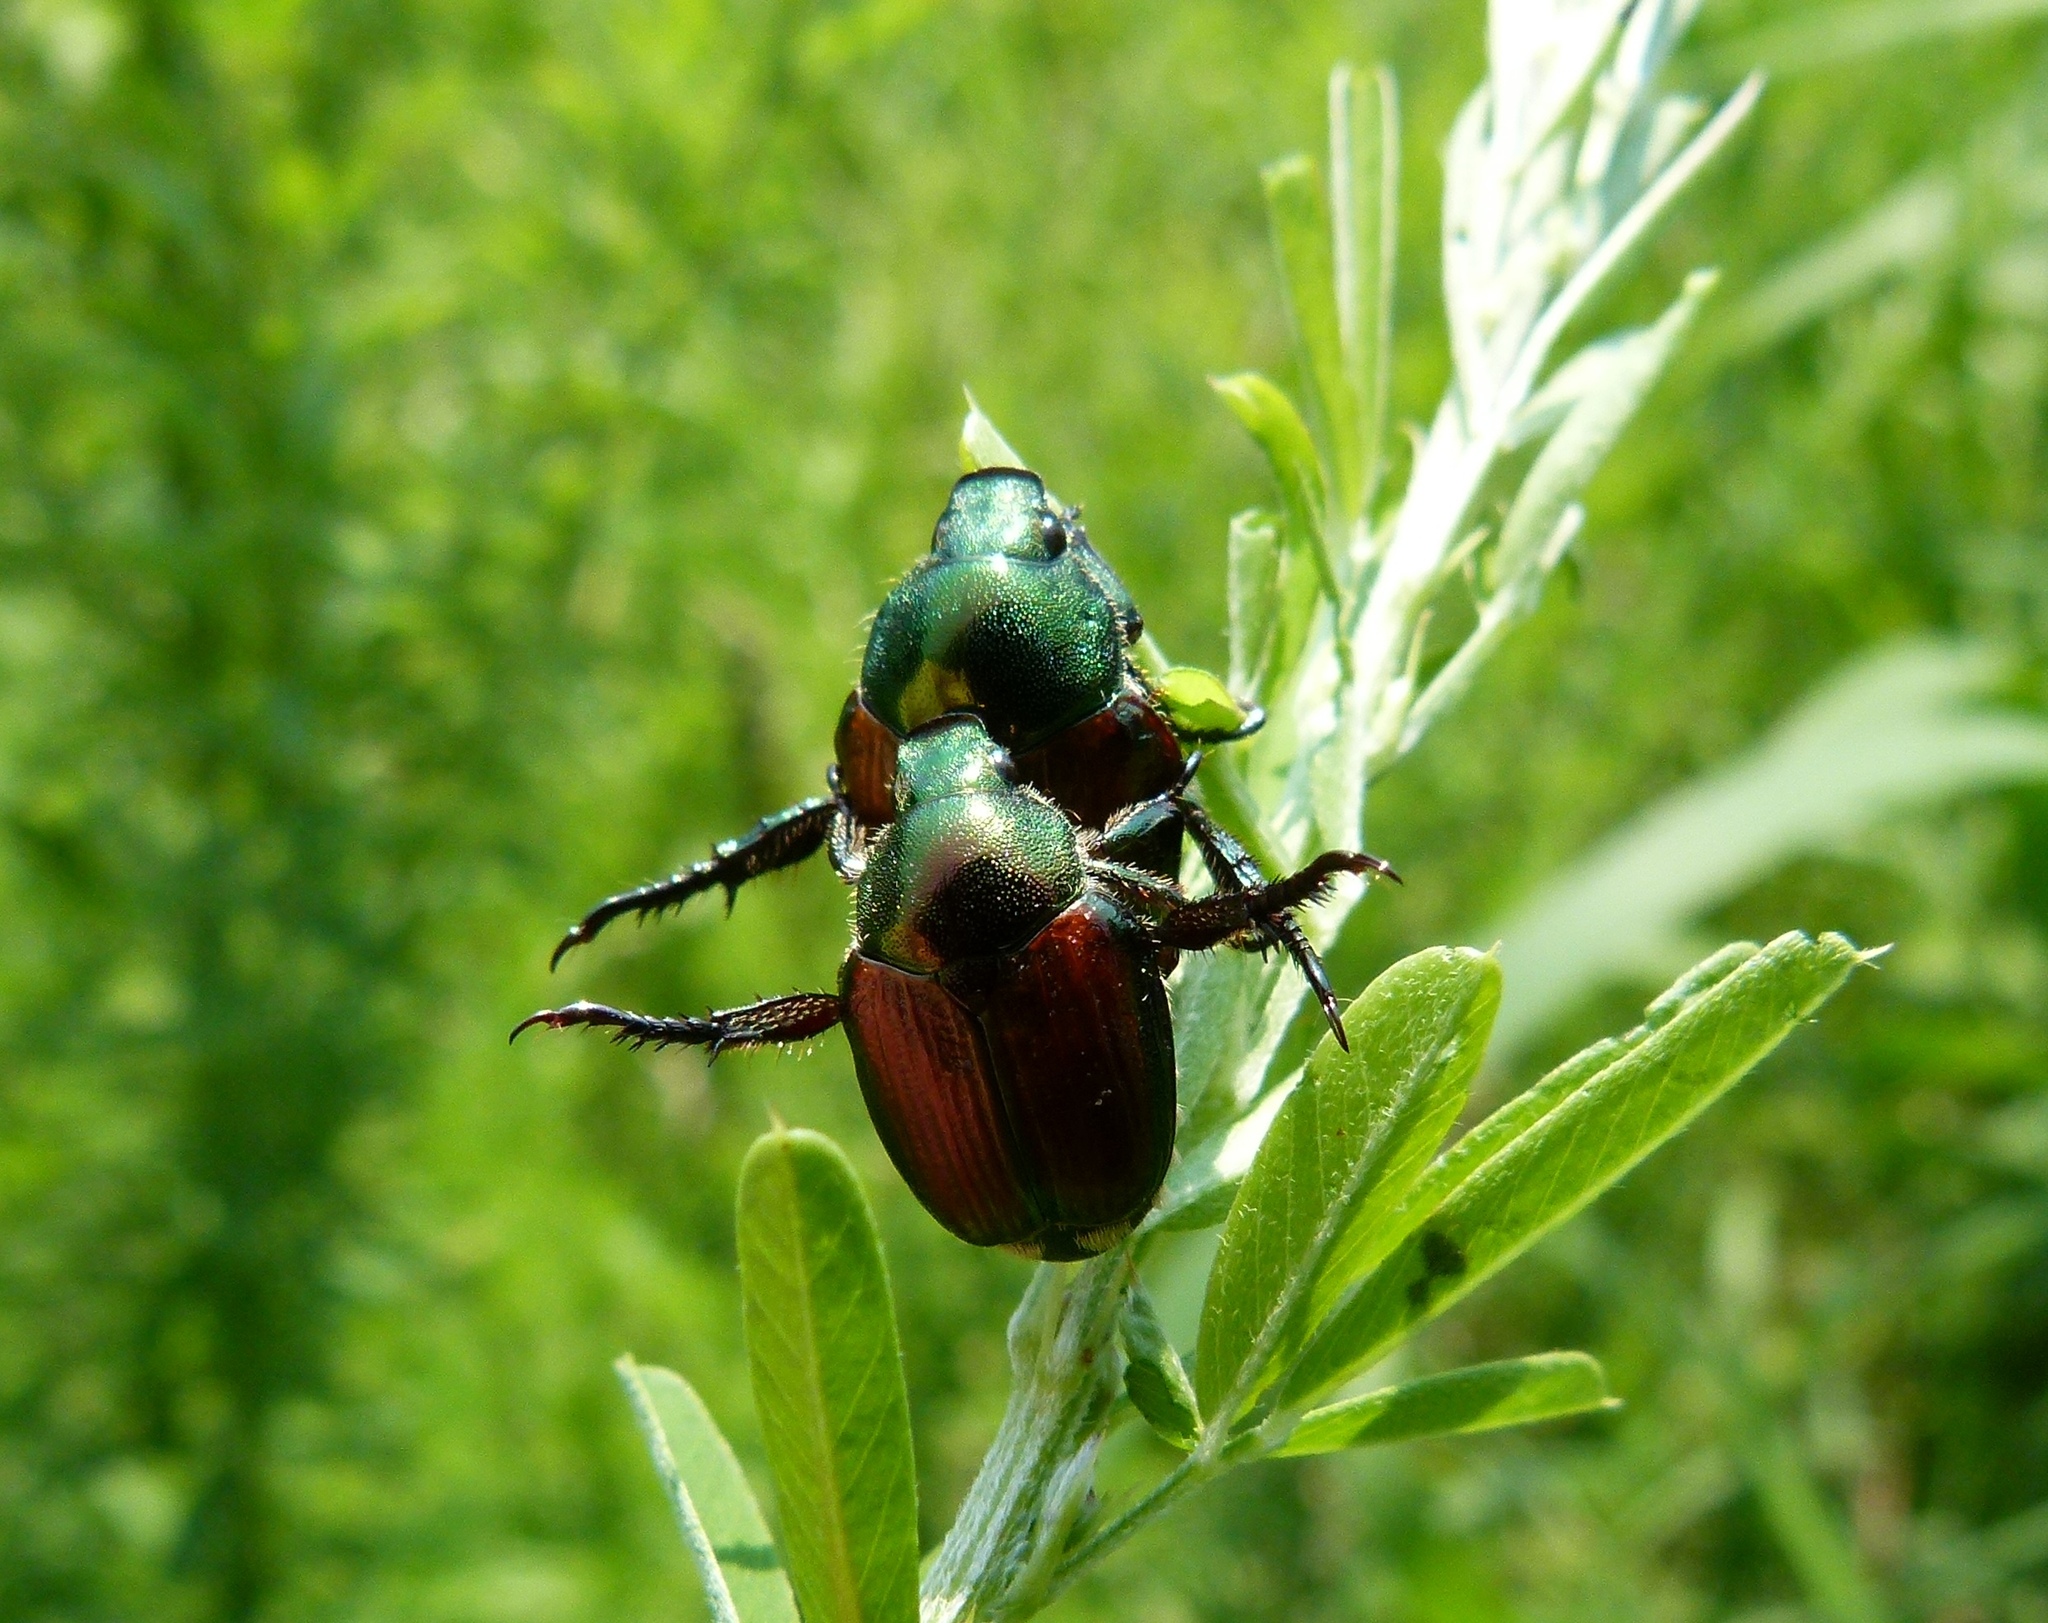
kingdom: Animalia
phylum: Arthropoda
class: Insecta
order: Coleoptera
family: Scarabaeidae
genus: Popillia
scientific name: Popillia japonica
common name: Japanese beetle
